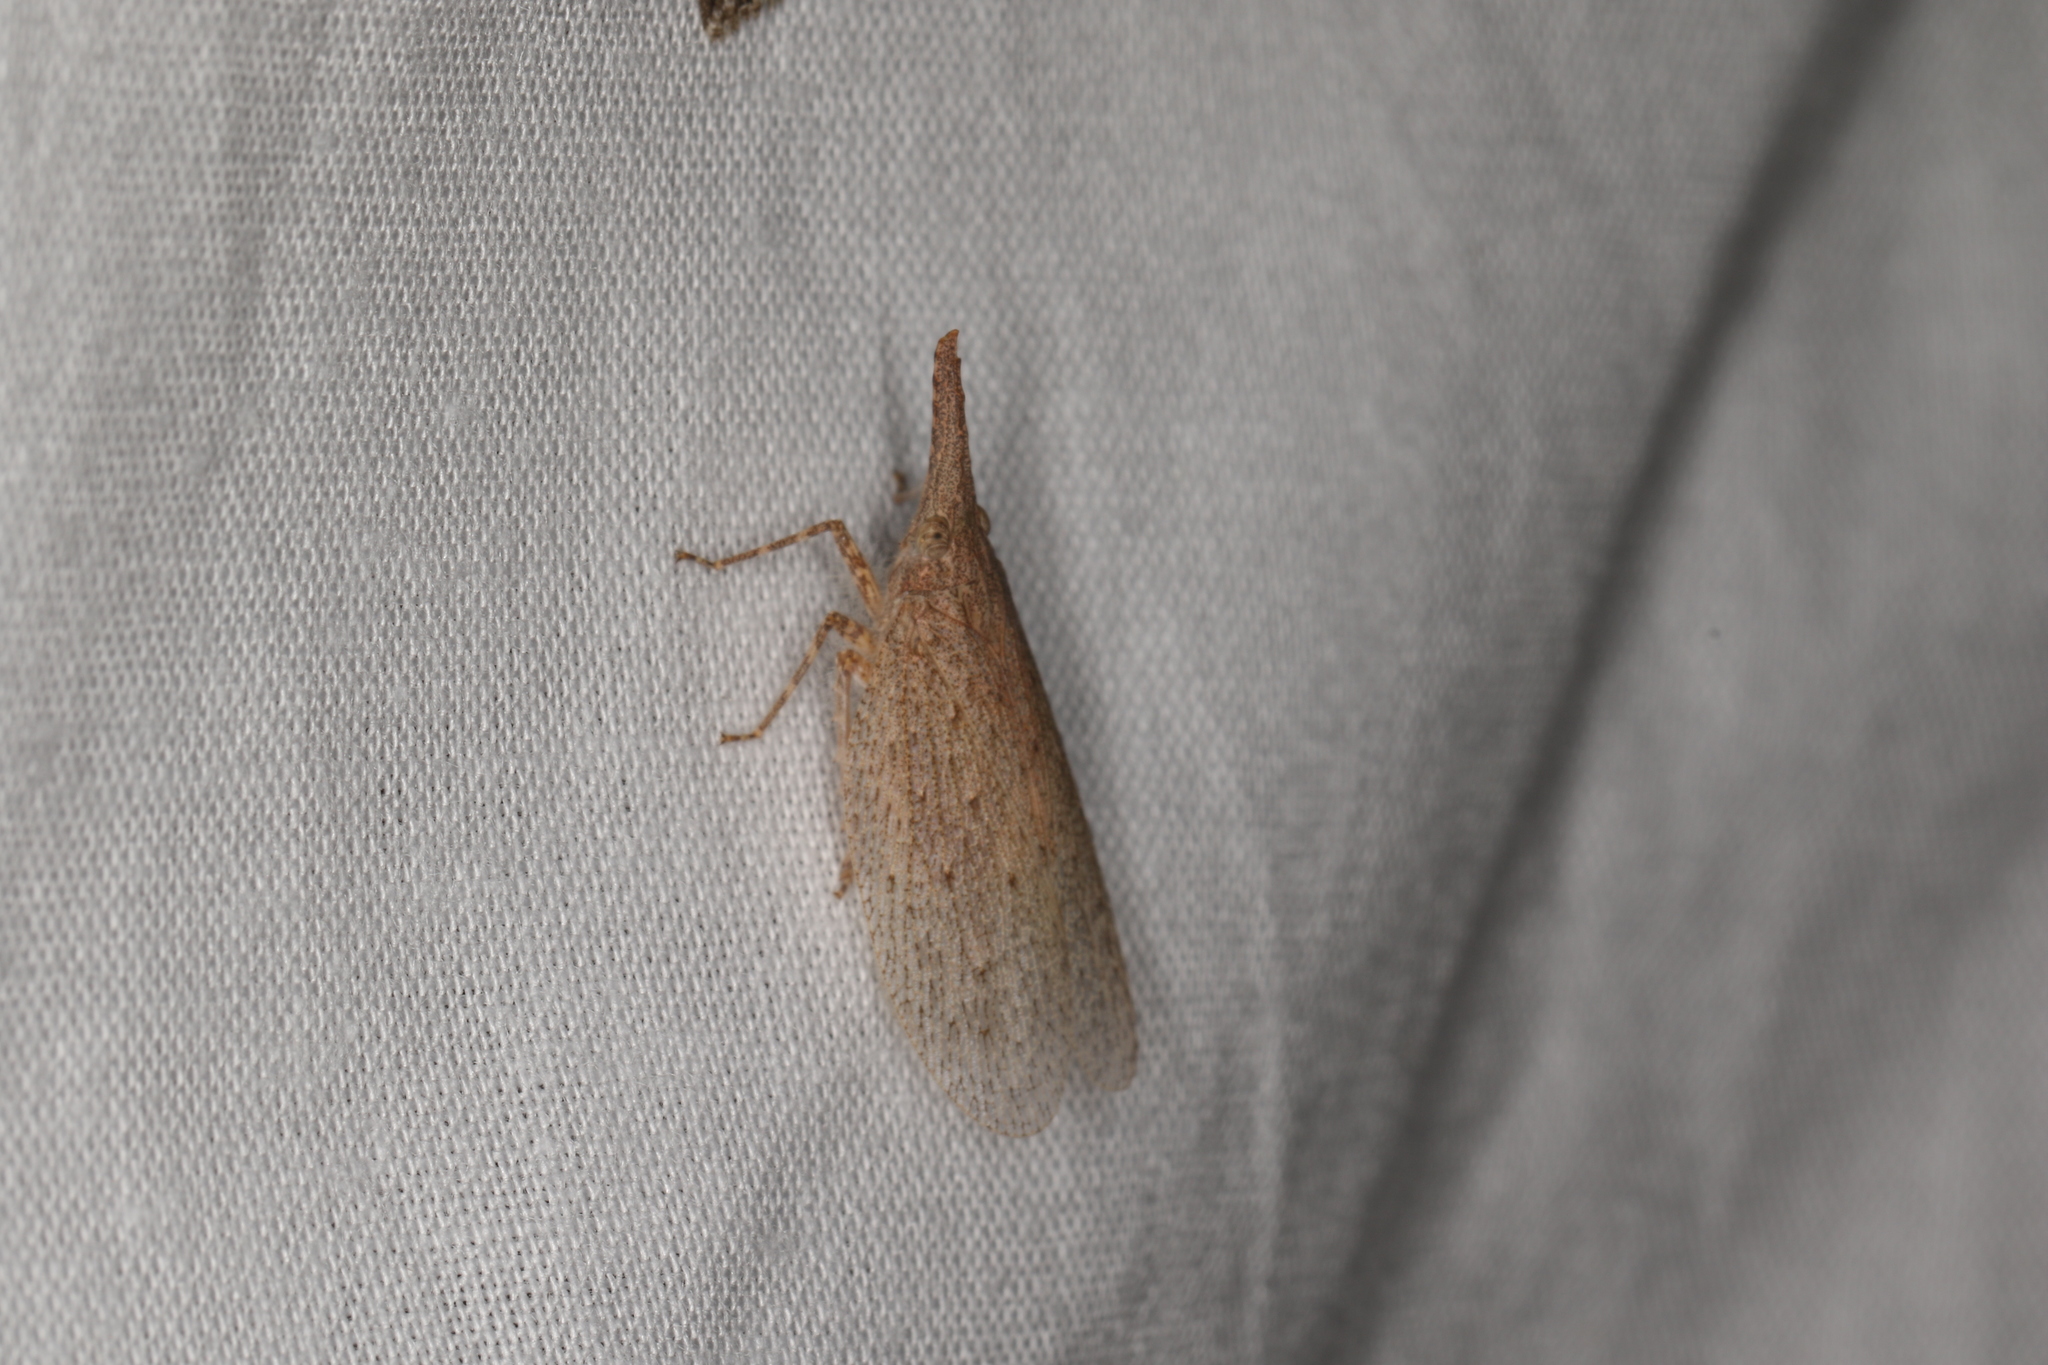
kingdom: Animalia
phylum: Arthropoda
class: Insecta
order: Hemiptera
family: Fulgoridae
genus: Rentinus
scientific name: Rentinus dilatatus
